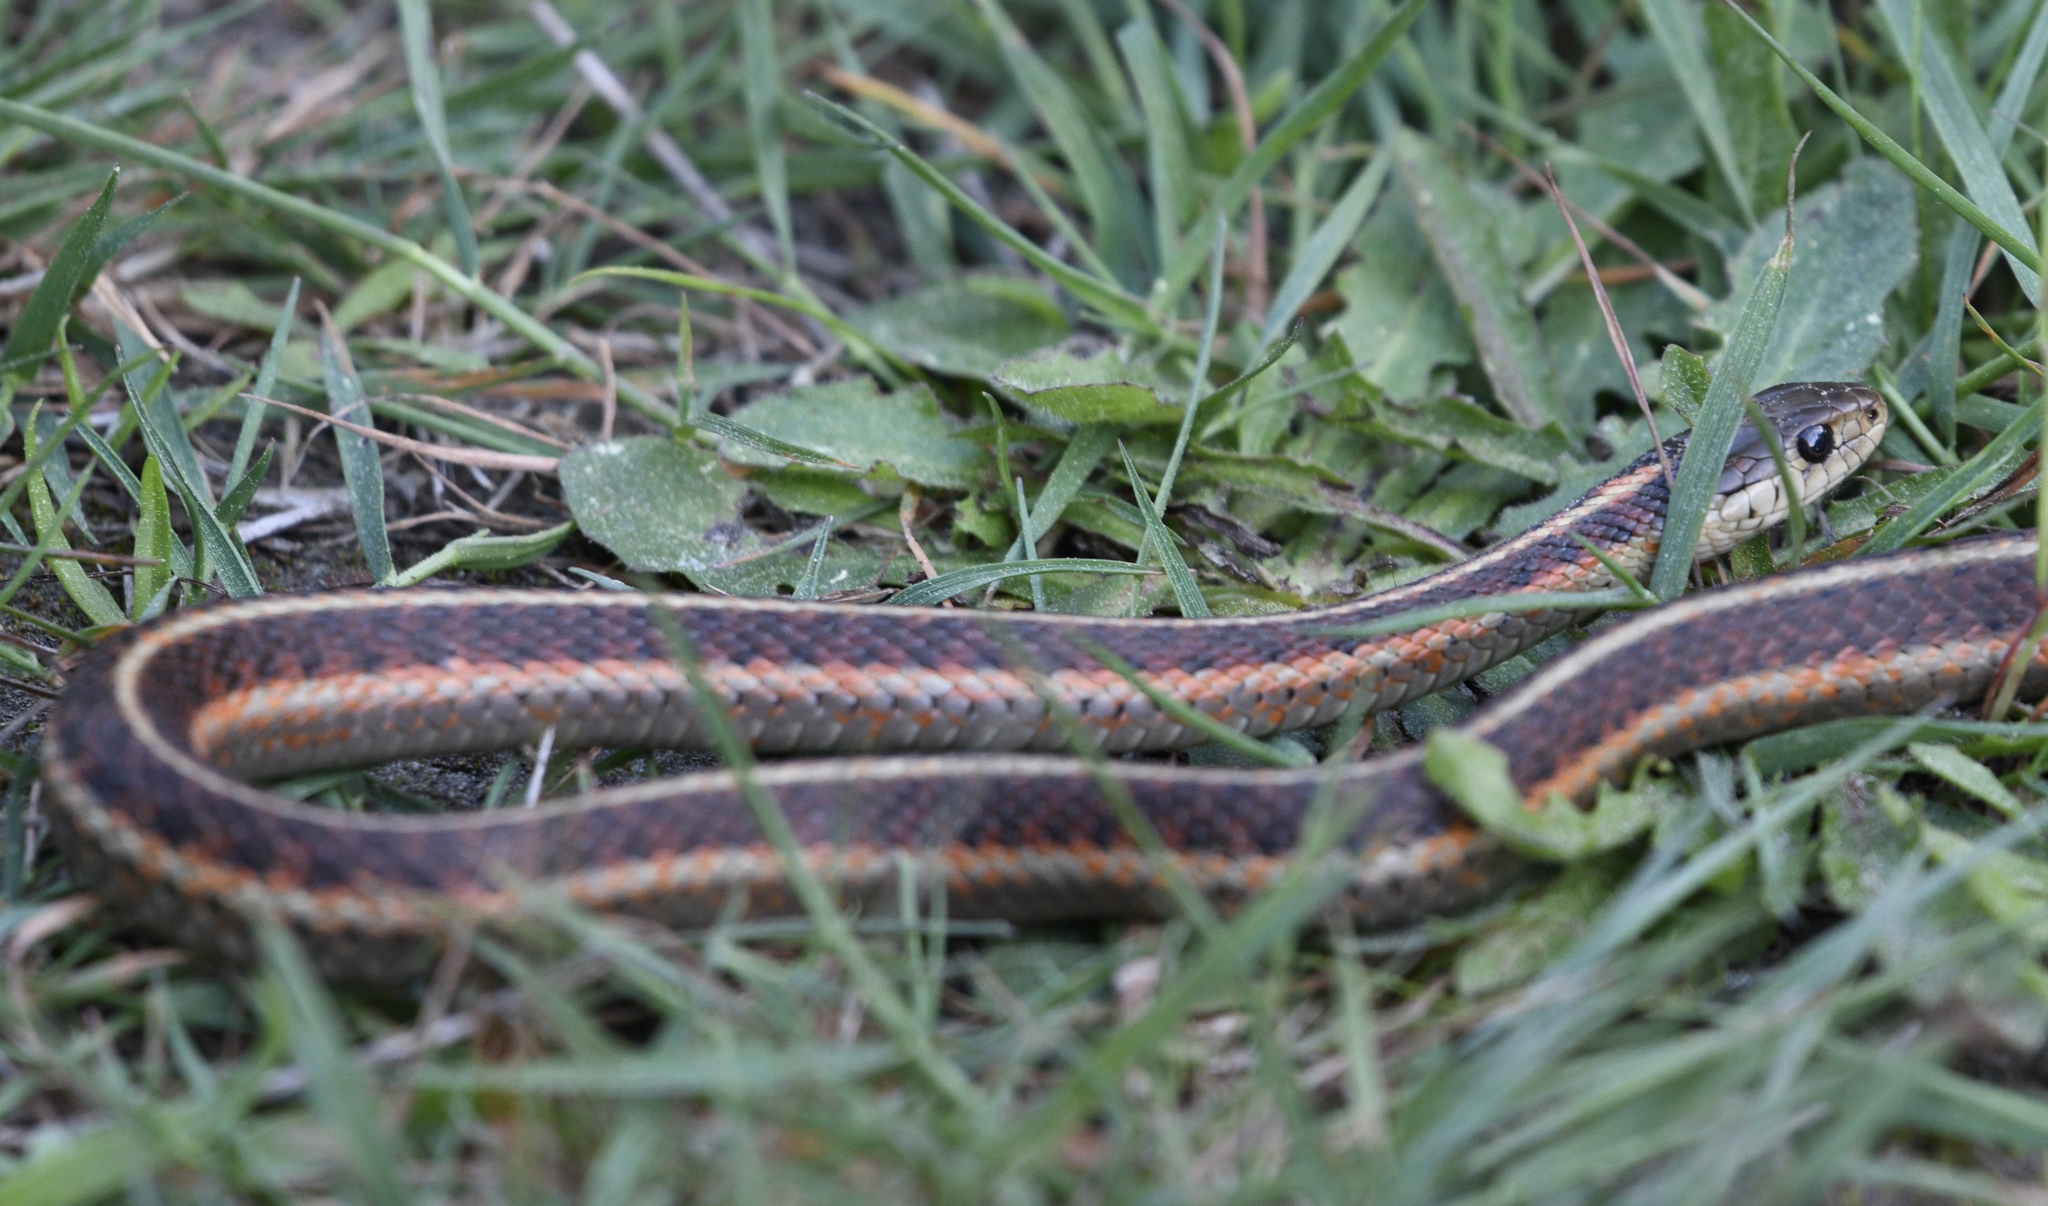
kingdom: Animalia
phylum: Chordata
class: Squamata
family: Colubridae
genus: Thamnophis
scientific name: Thamnophis elegans
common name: Western terrestrial garter snake
